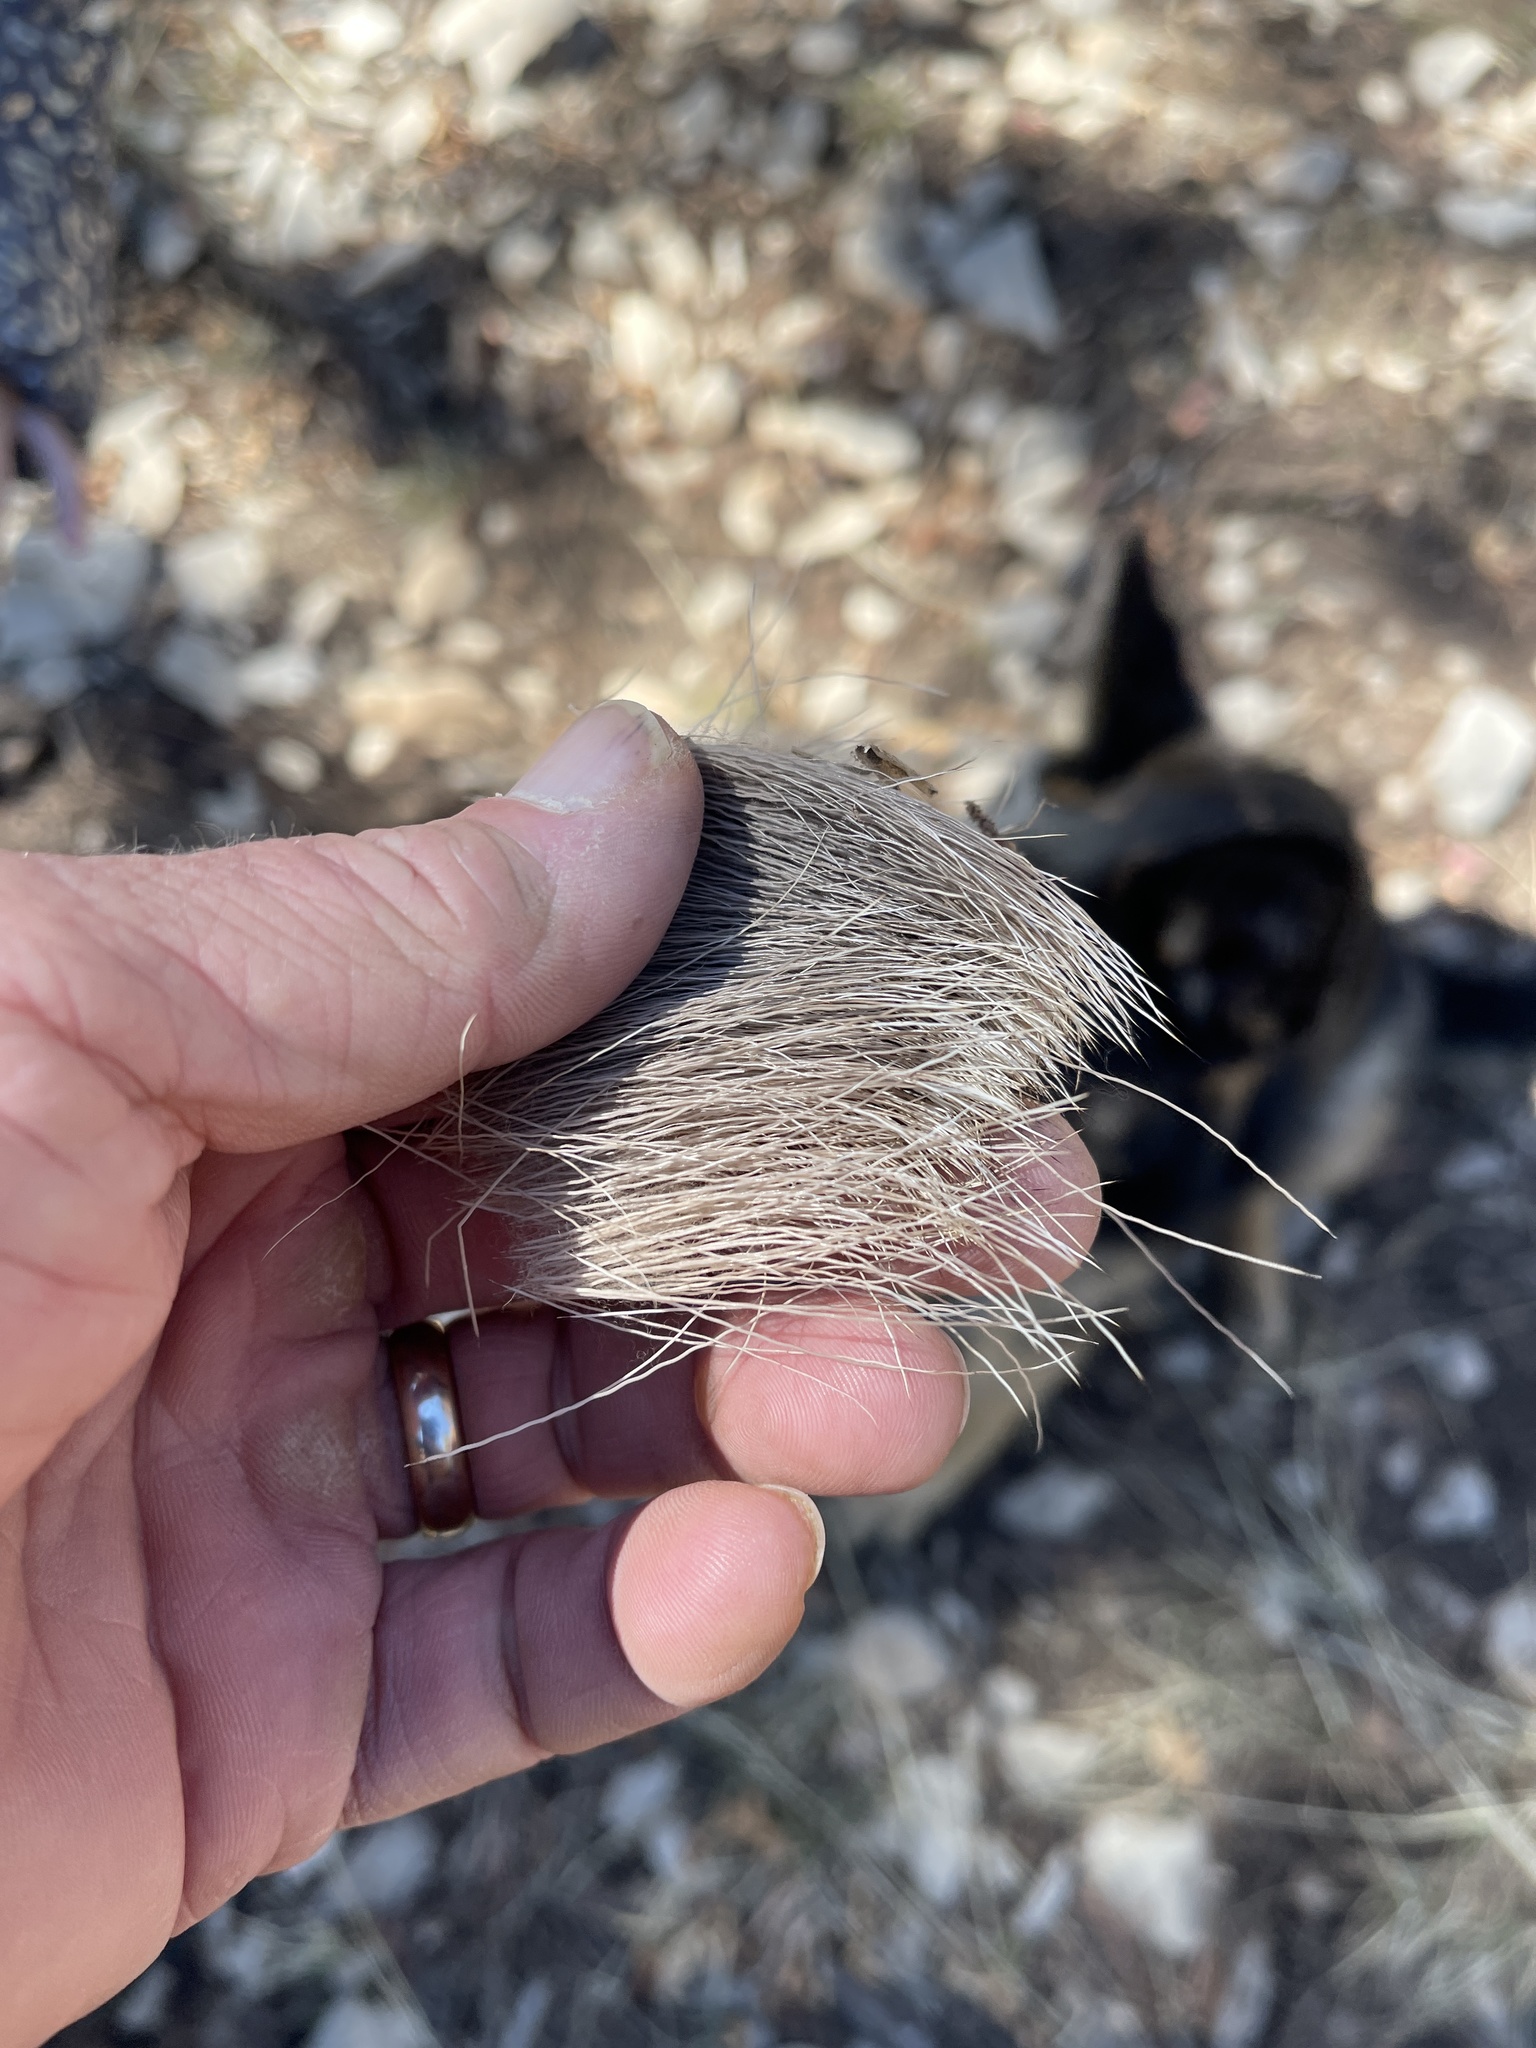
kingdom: Animalia
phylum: Chordata
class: Mammalia
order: Artiodactyla
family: Cervidae
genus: Odocoileus
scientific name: Odocoileus hemionus
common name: Mule deer
